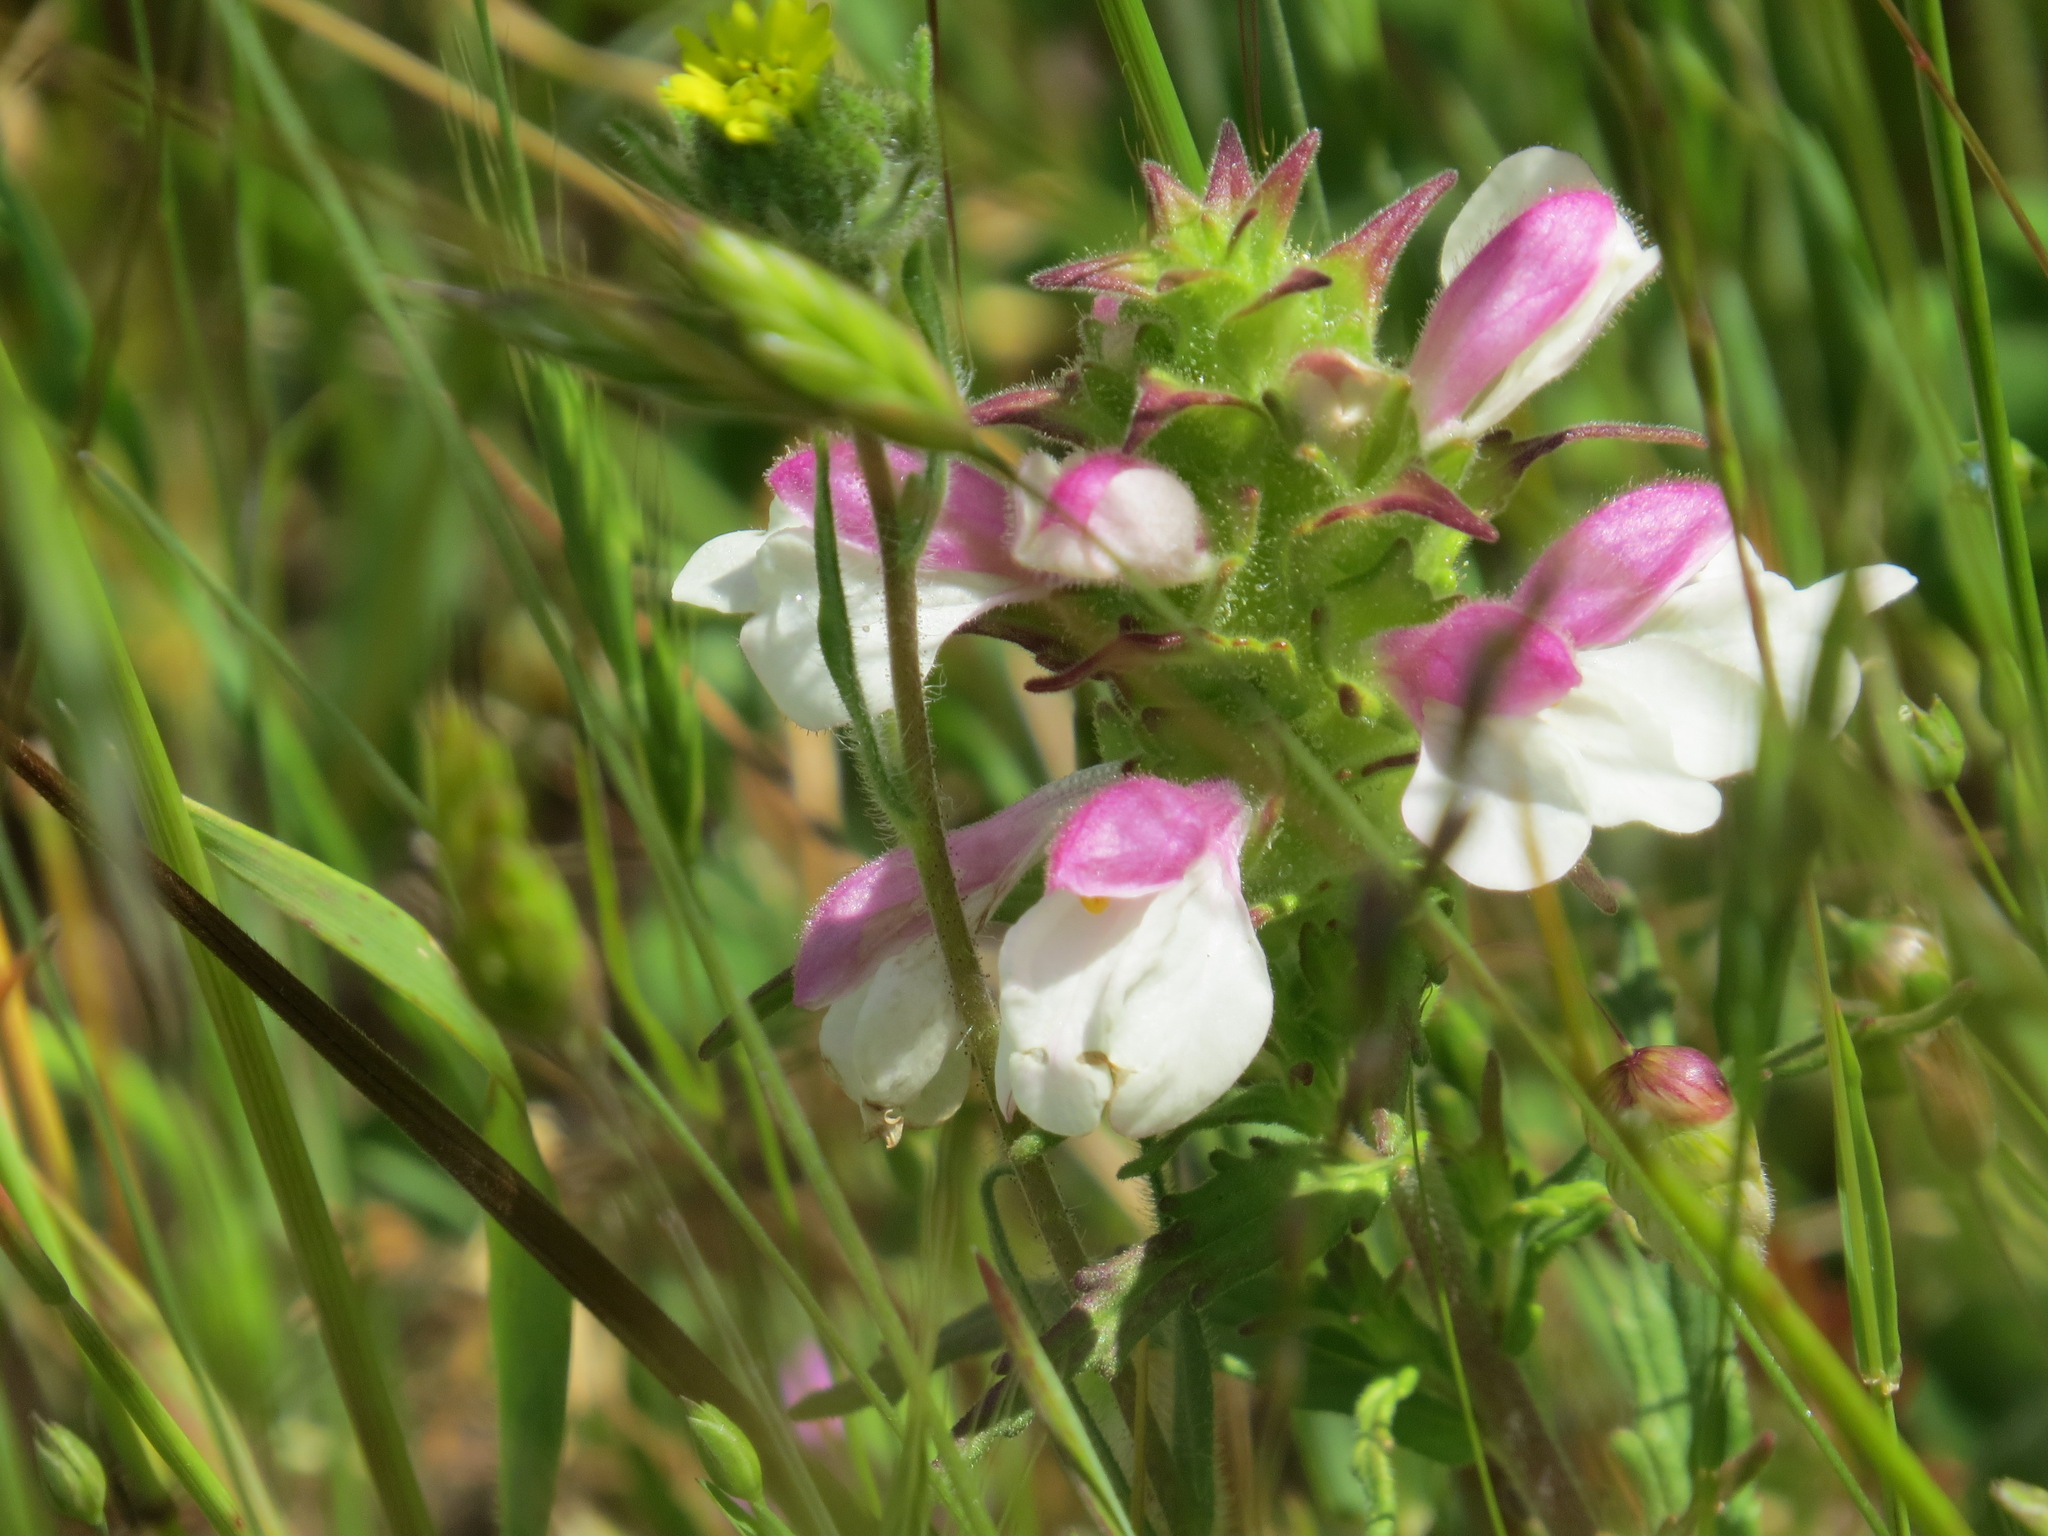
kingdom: Plantae
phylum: Tracheophyta
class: Magnoliopsida
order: Lamiales
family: Orobanchaceae
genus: Bellardia
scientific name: Bellardia trixago
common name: Mediterranean lineseed
